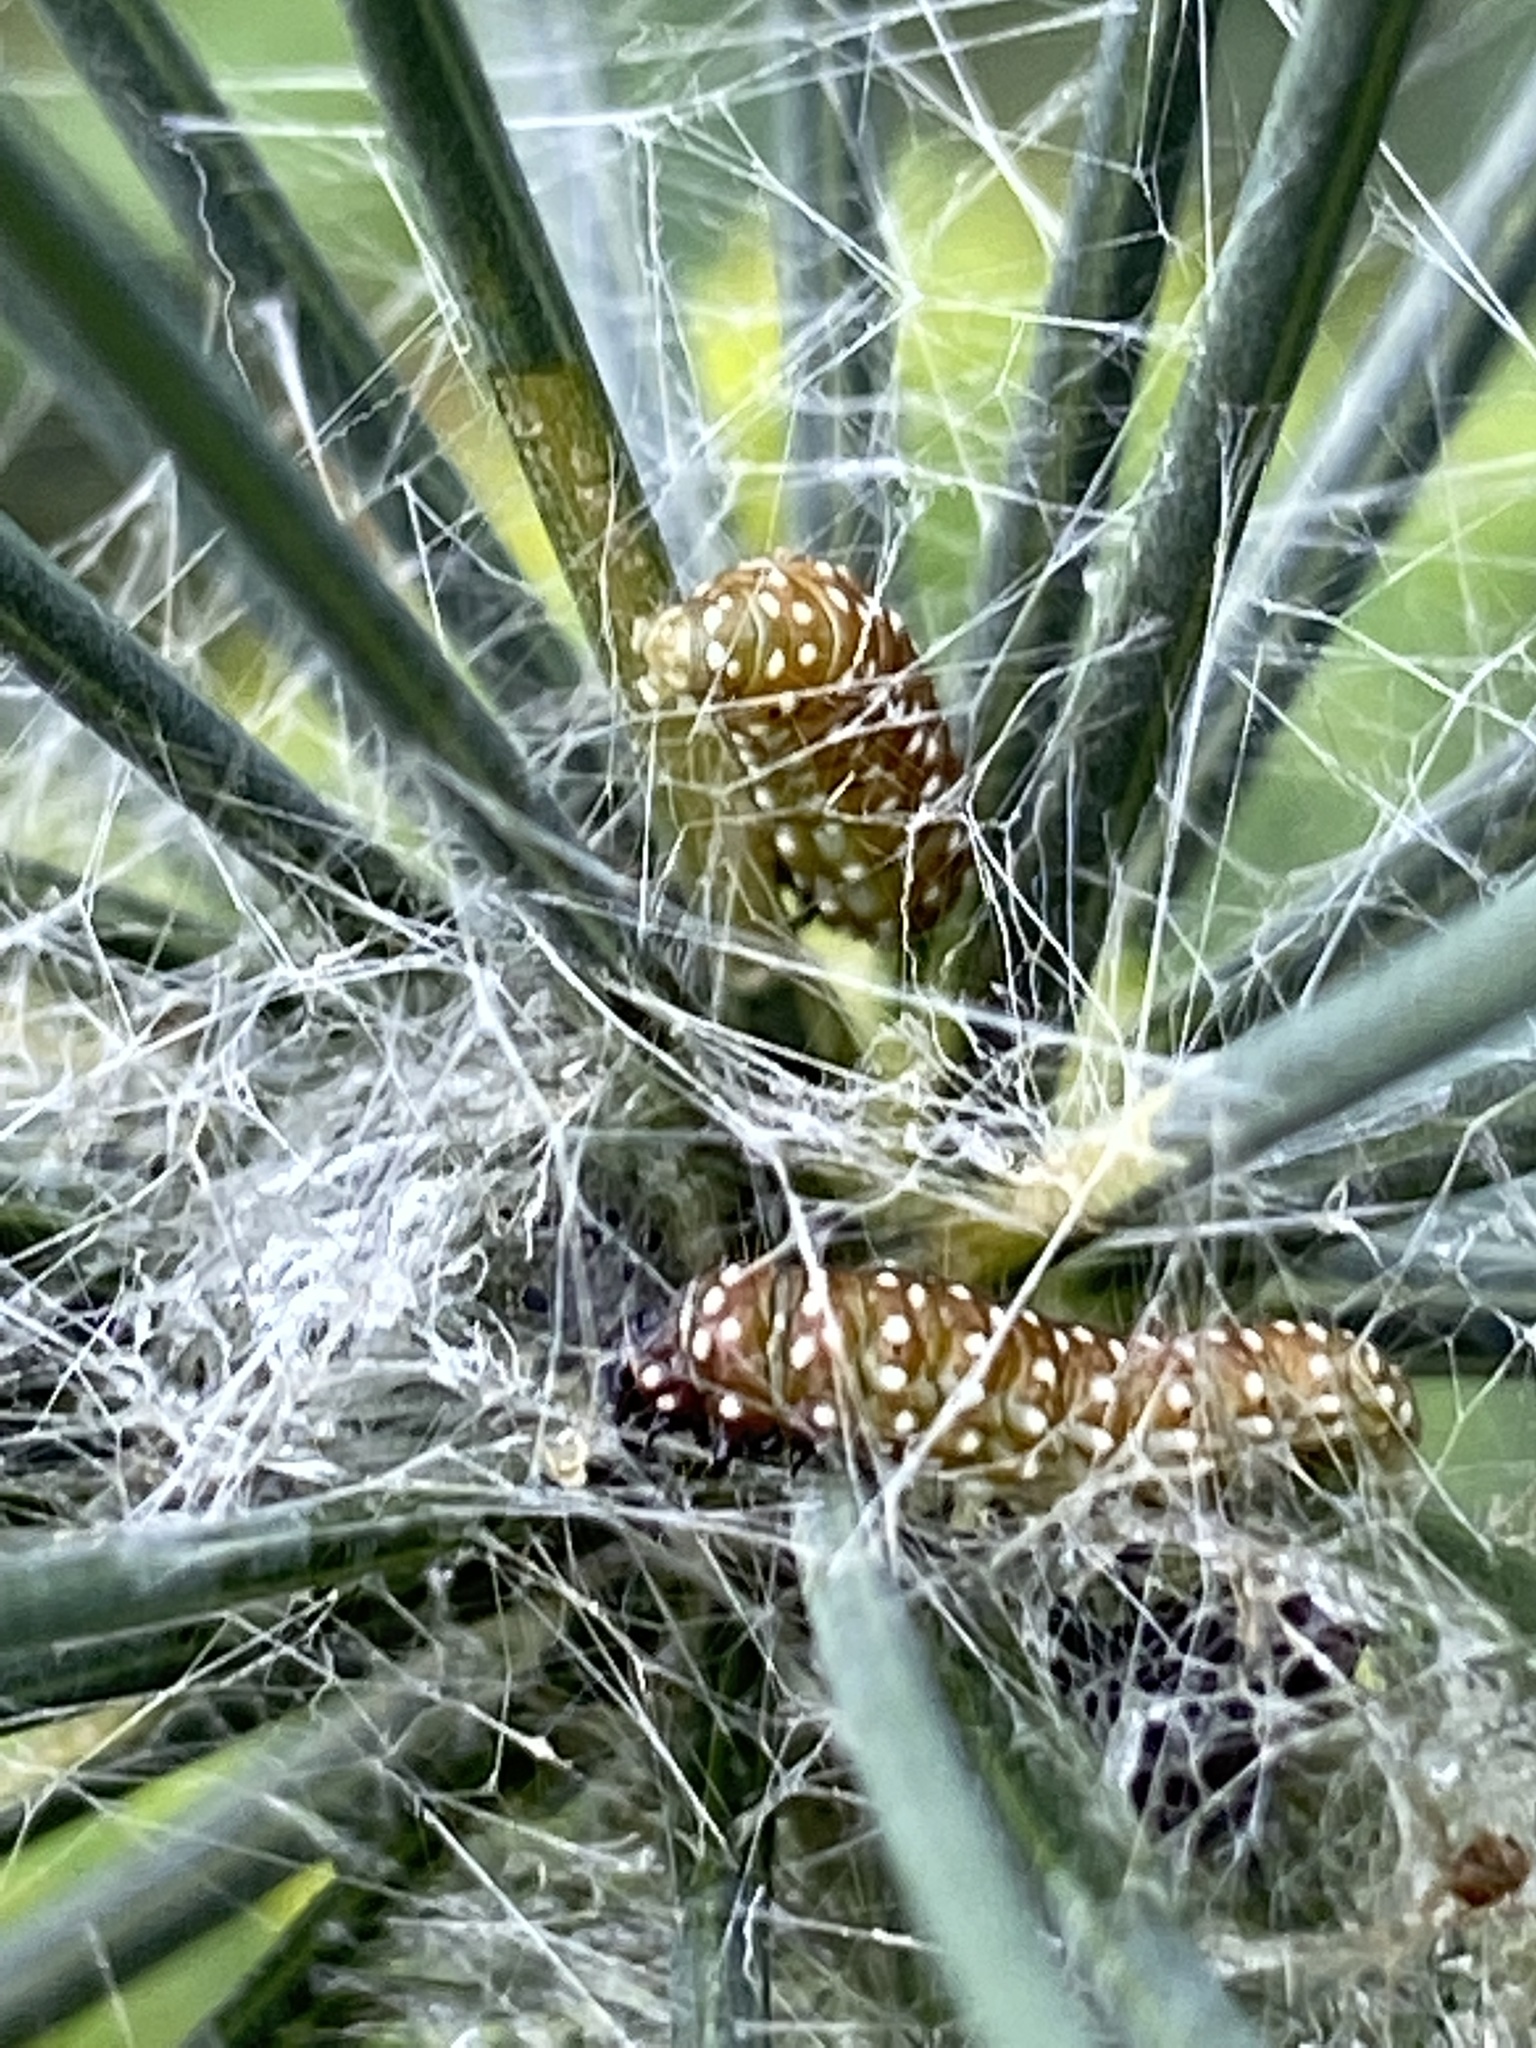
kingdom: Animalia
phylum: Arthropoda
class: Insecta
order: Lepidoptera
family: Depressariidae
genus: Depressaria
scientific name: Depressaria depressana
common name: Lost flat-body
